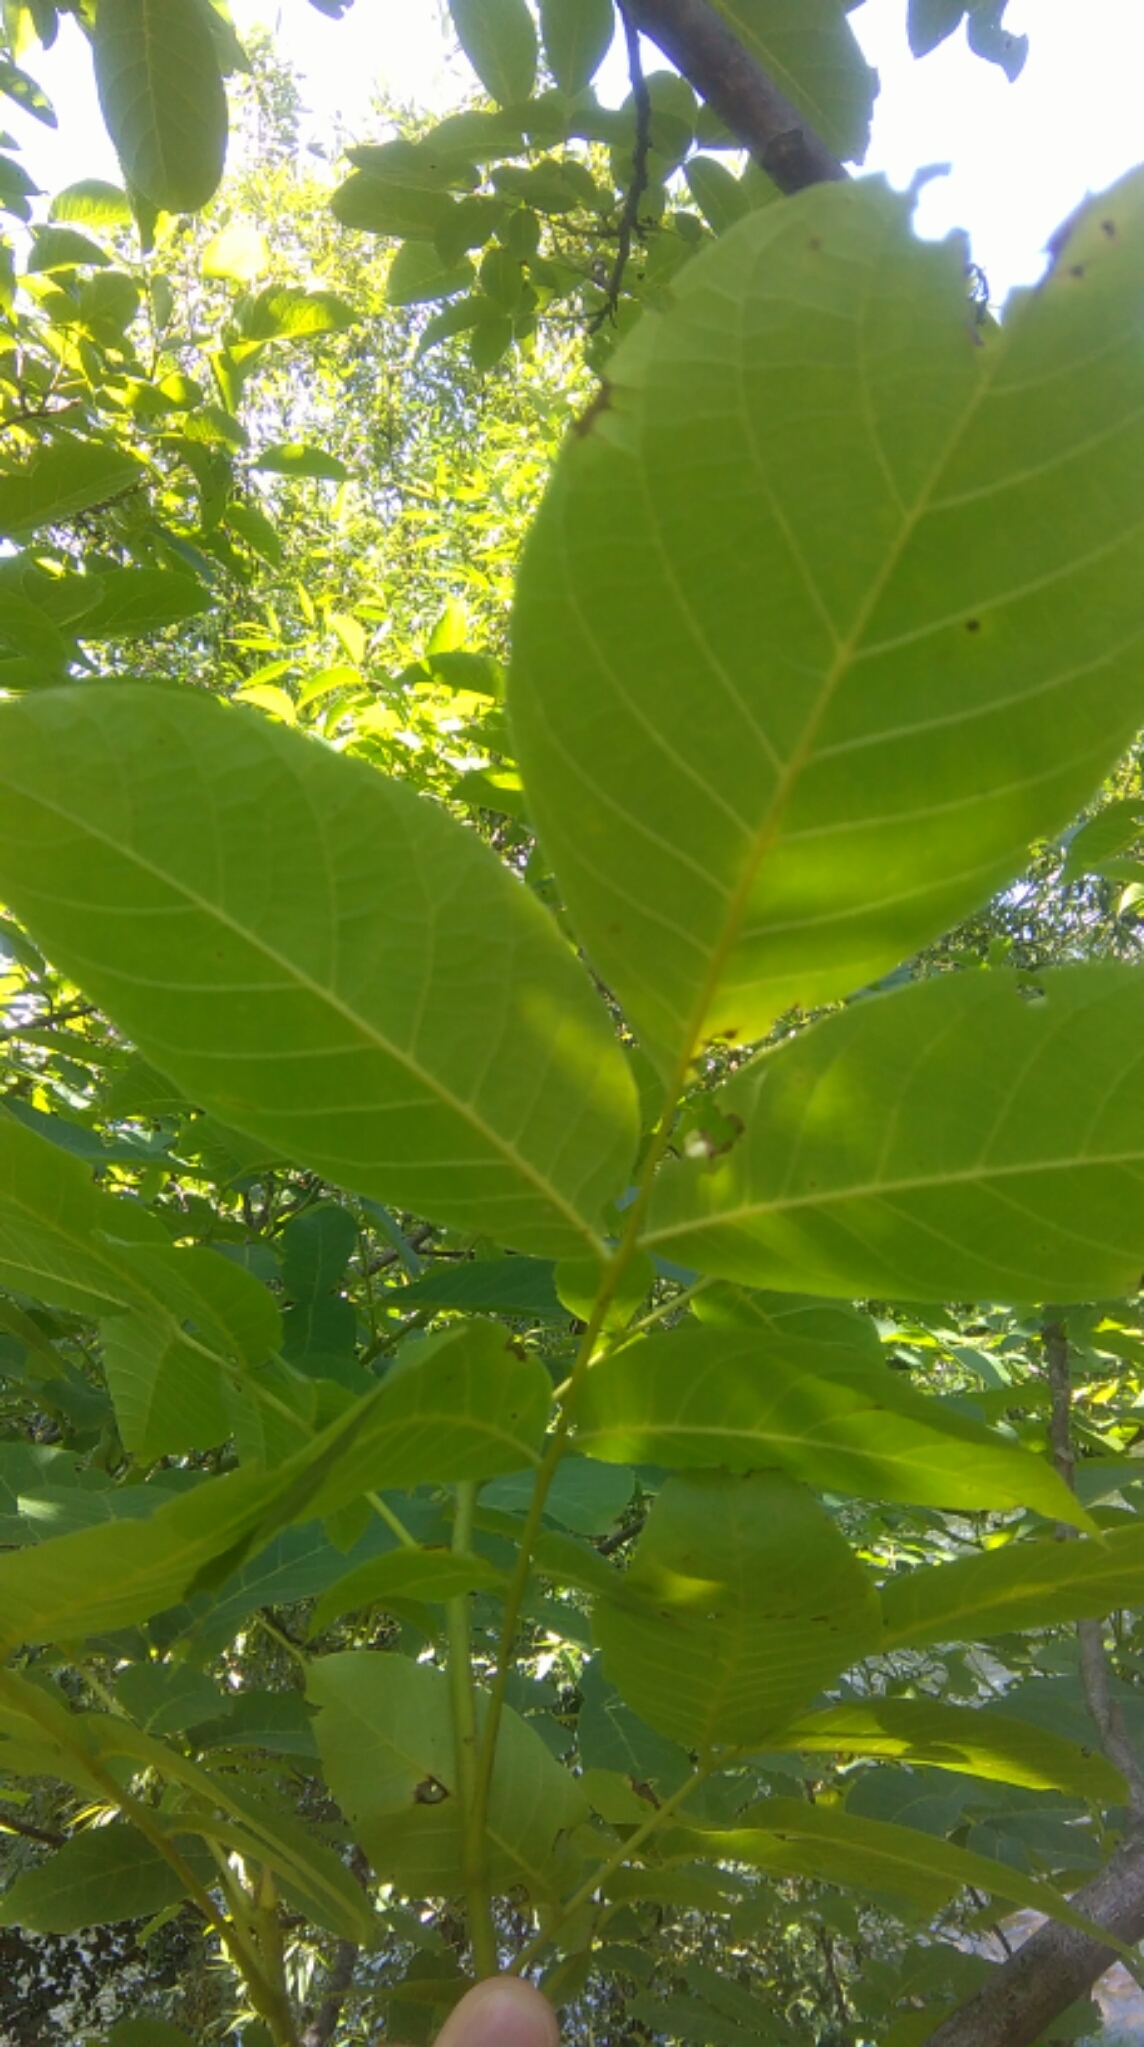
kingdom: Plantae
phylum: Tracheophyta
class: Magnoliopsida
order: Fagales
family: Juglandaceae
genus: Juglans
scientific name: Juglans regia
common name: Walnut
